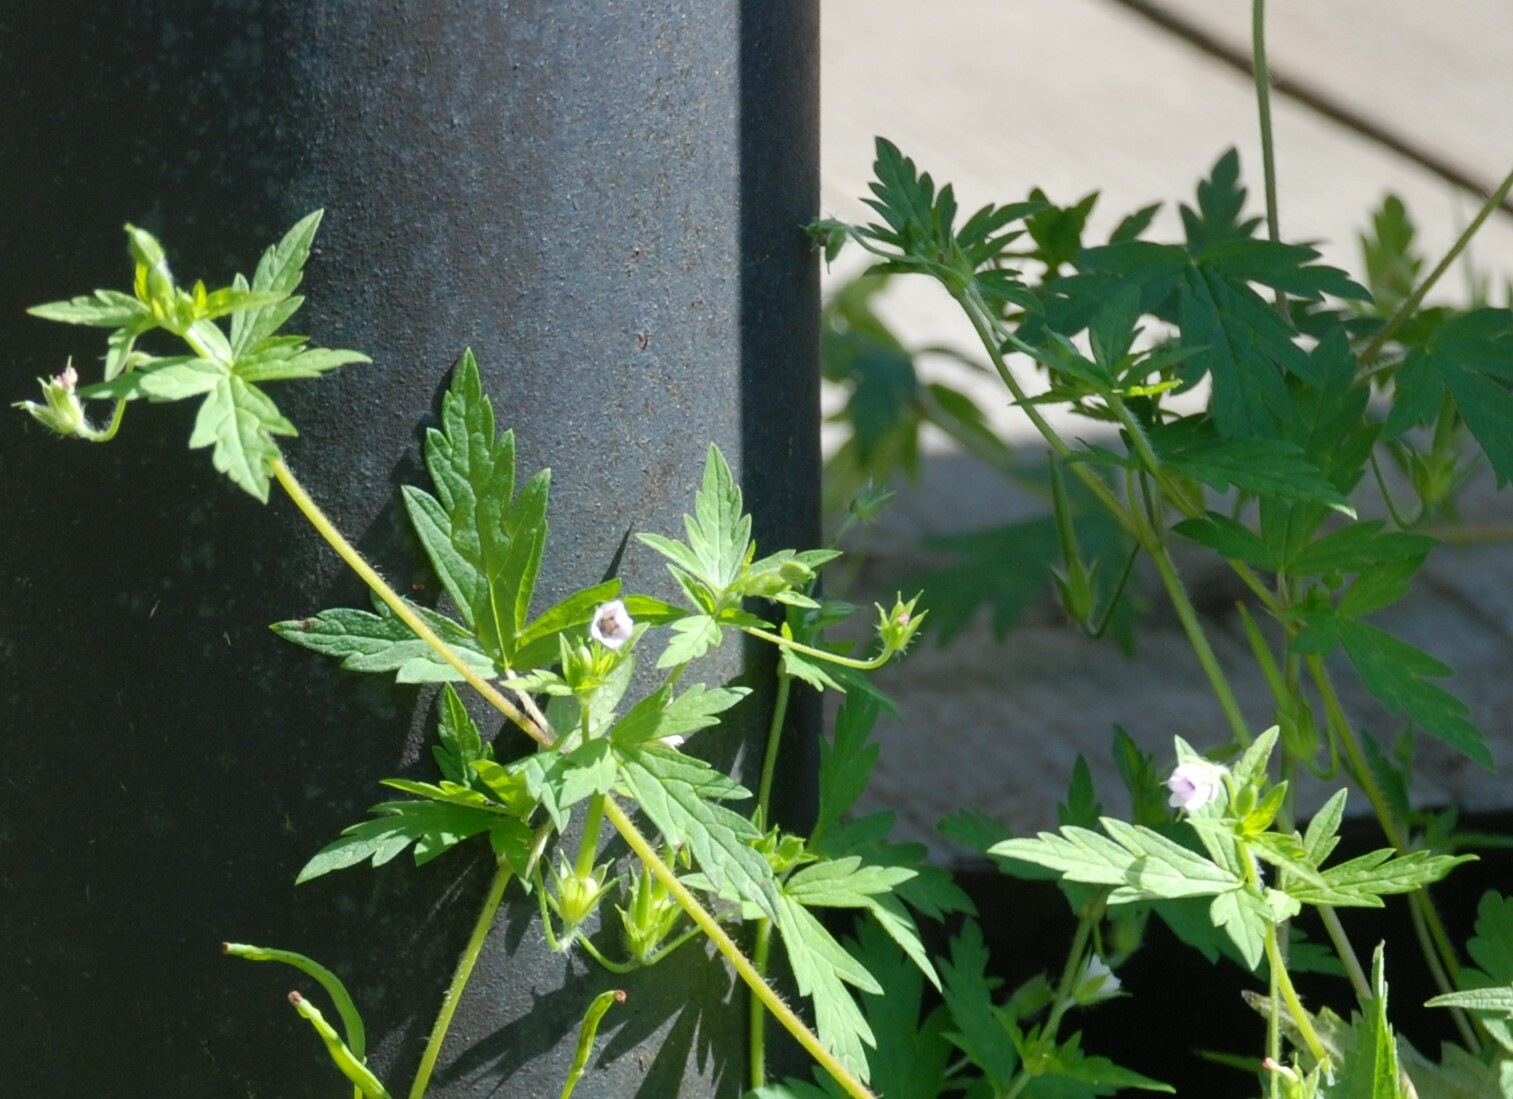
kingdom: Plantae
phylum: Tracheophyta
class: Magnoliopsida
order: Geraniales
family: Geraniaceae
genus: Geranium
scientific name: Geranium sibiricum
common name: Siberian crane's-bill
